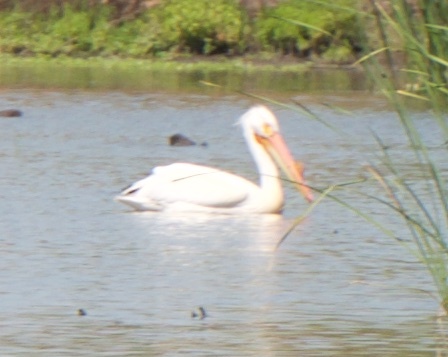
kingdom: Animalia
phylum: Chordata
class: Aves
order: Pelecaniformes
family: Pelecanidae
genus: Pelecanus
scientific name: Pelecanus erythrorhynchos
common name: American white pelican
